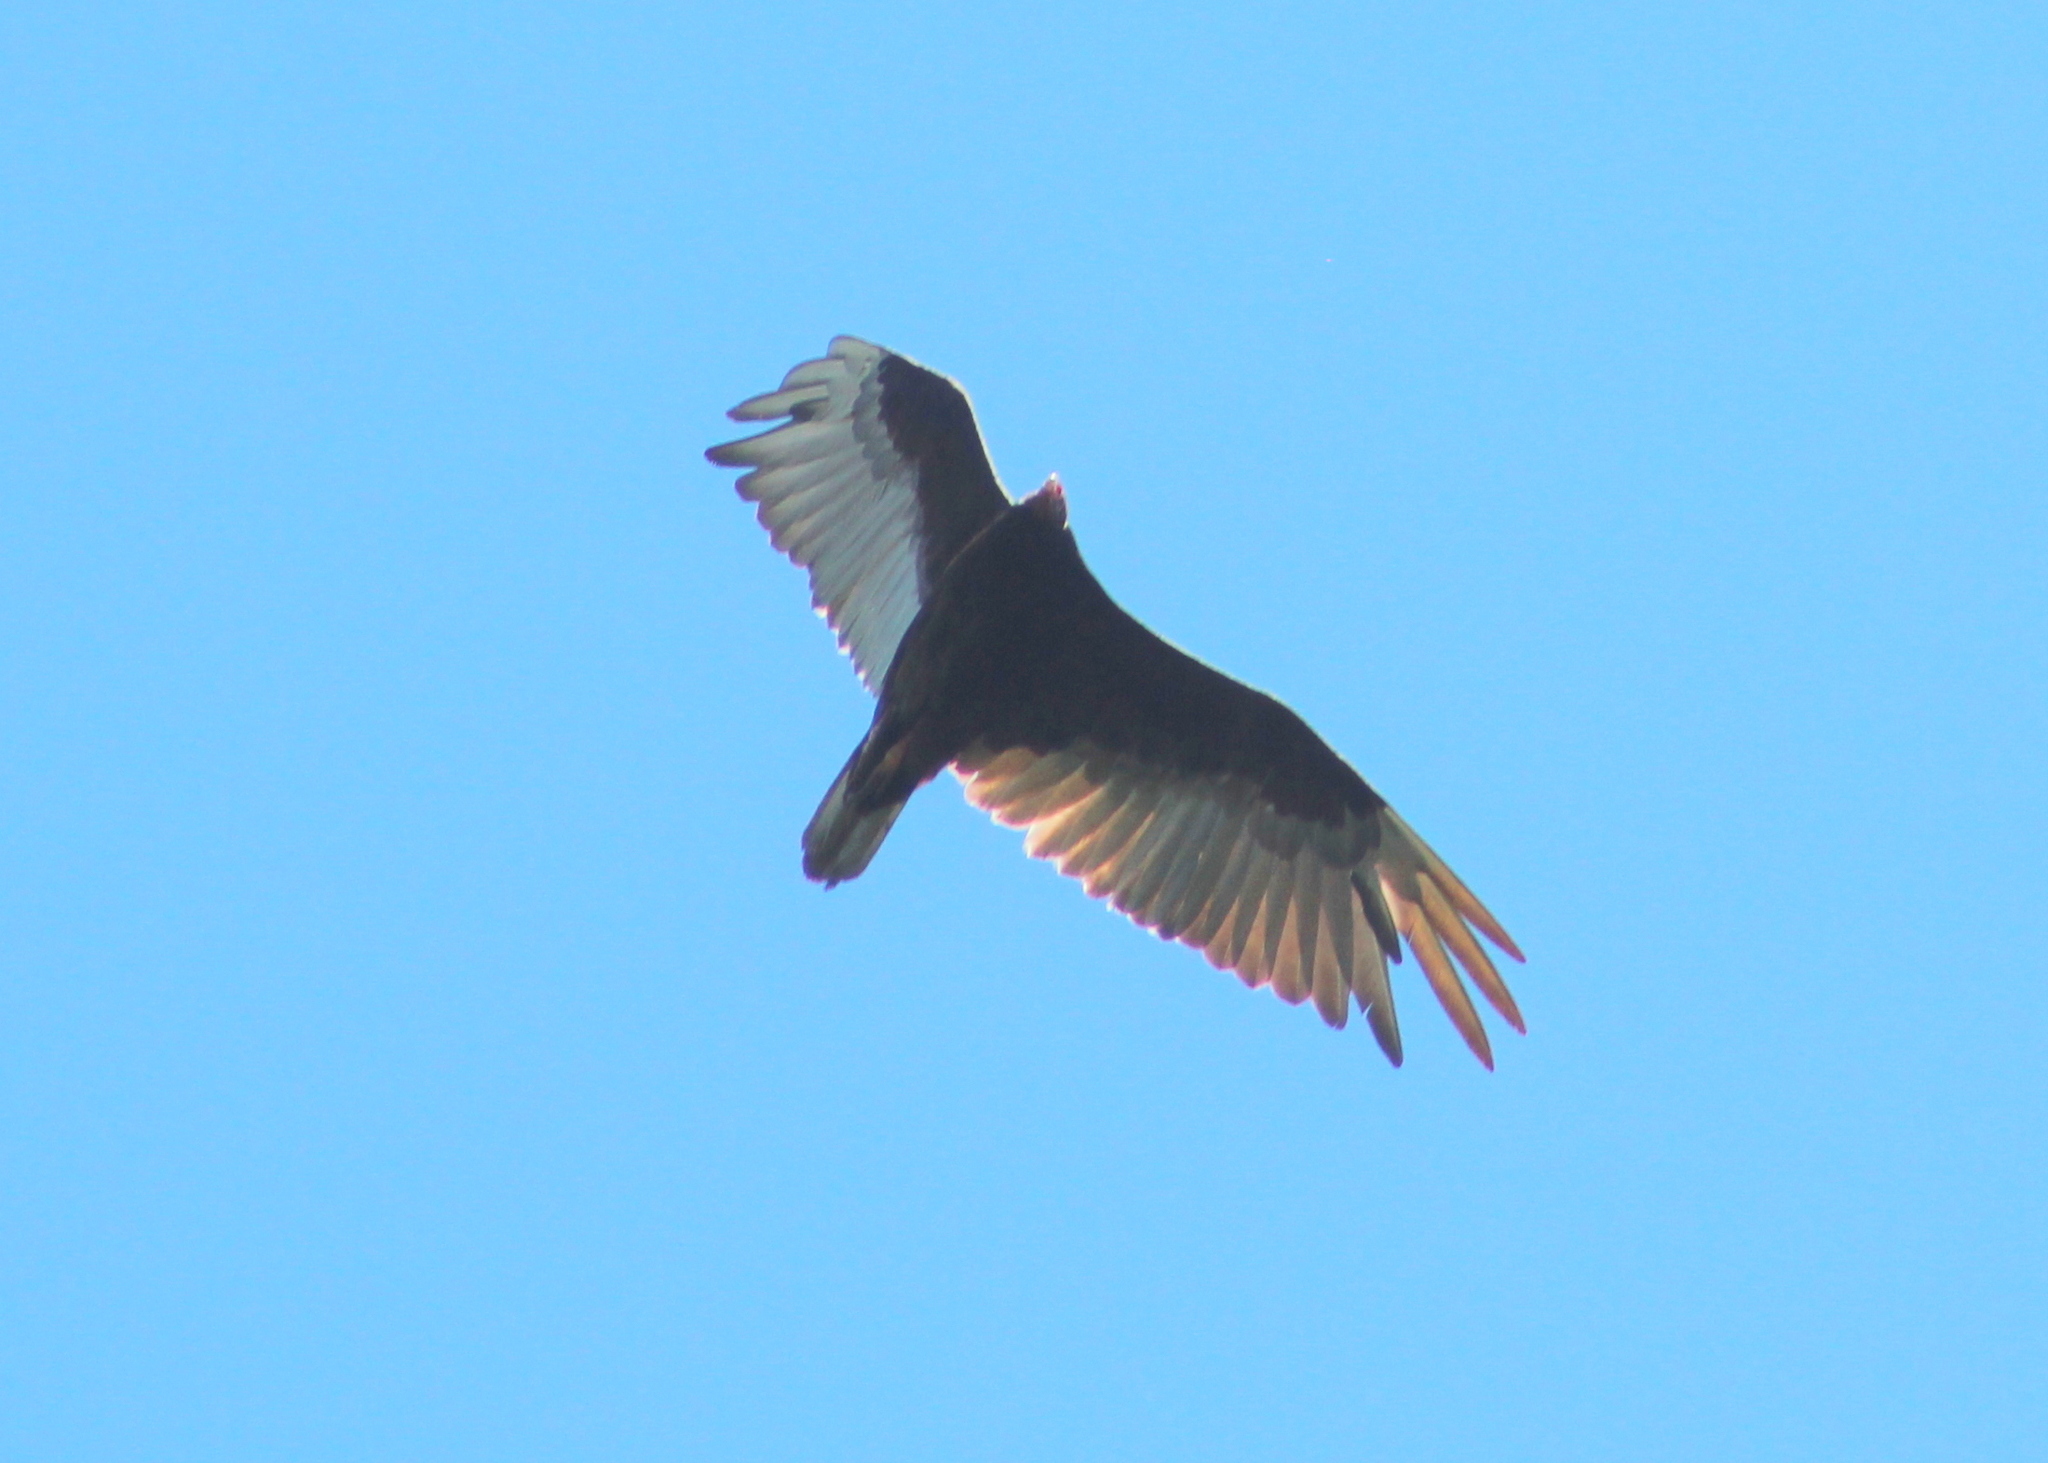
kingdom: Animalia
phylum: Chordata
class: Aves
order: Accipitriformes
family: Cathartidae
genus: Cathartes
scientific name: Cathartes aura
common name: Turkey vulture
